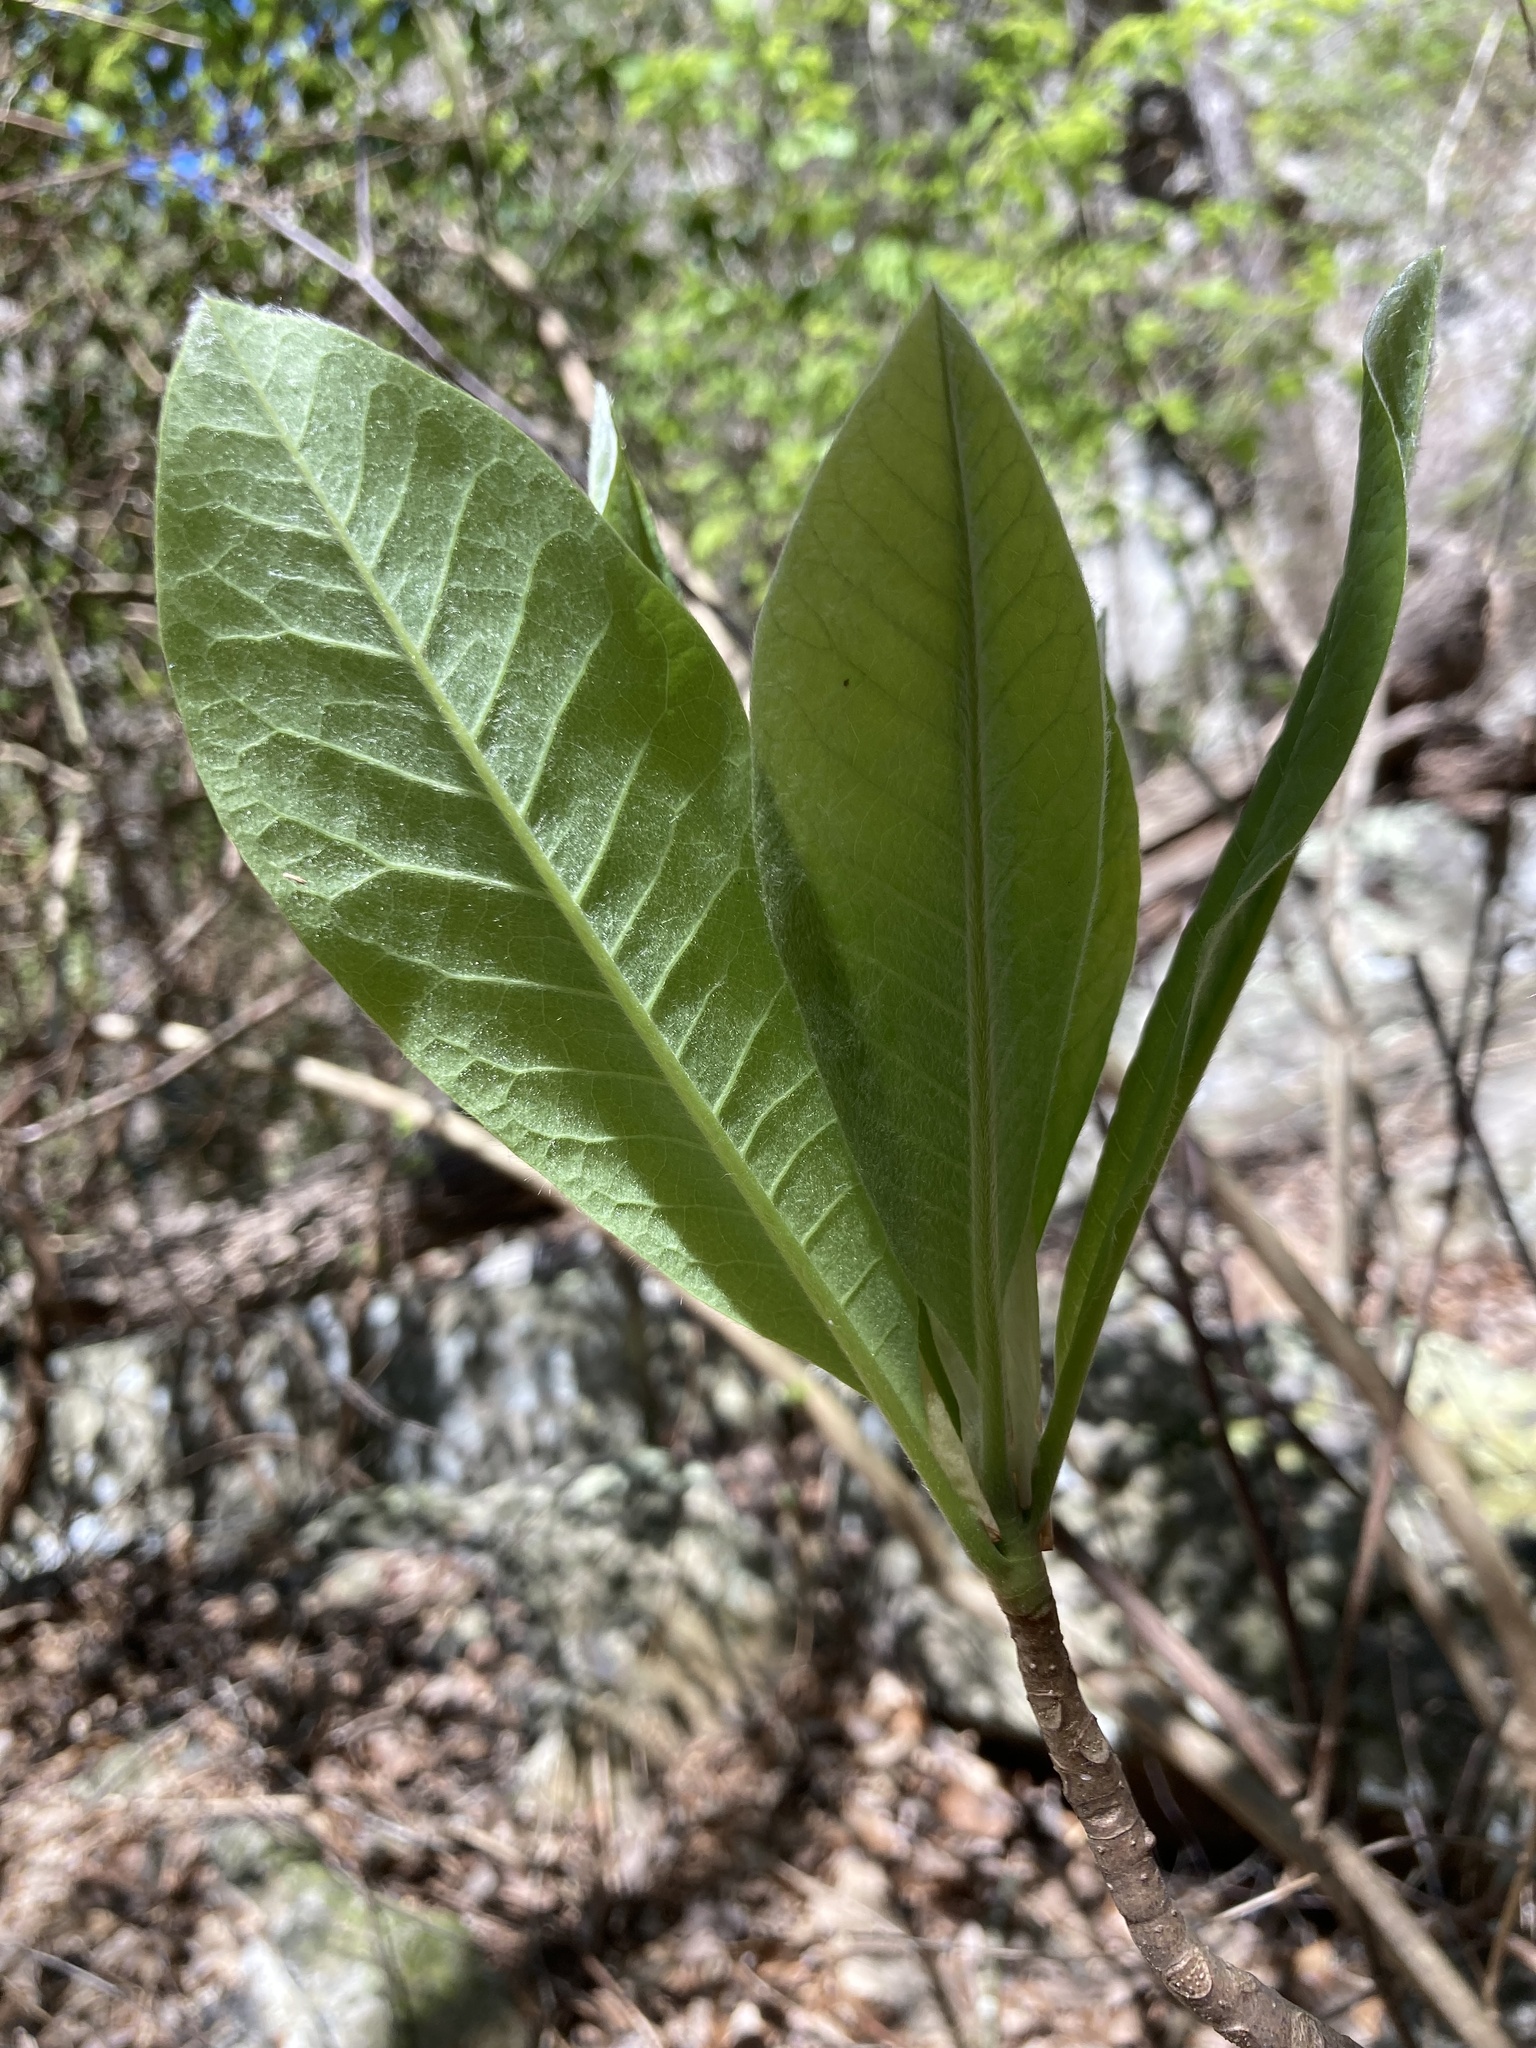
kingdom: Plantae
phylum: Tracheophyta
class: Magnoliopsida
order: Magnoliales
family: Magnoliaceae
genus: Magnolia
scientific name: Magnolia tripetala
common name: Umbrella magnolia
